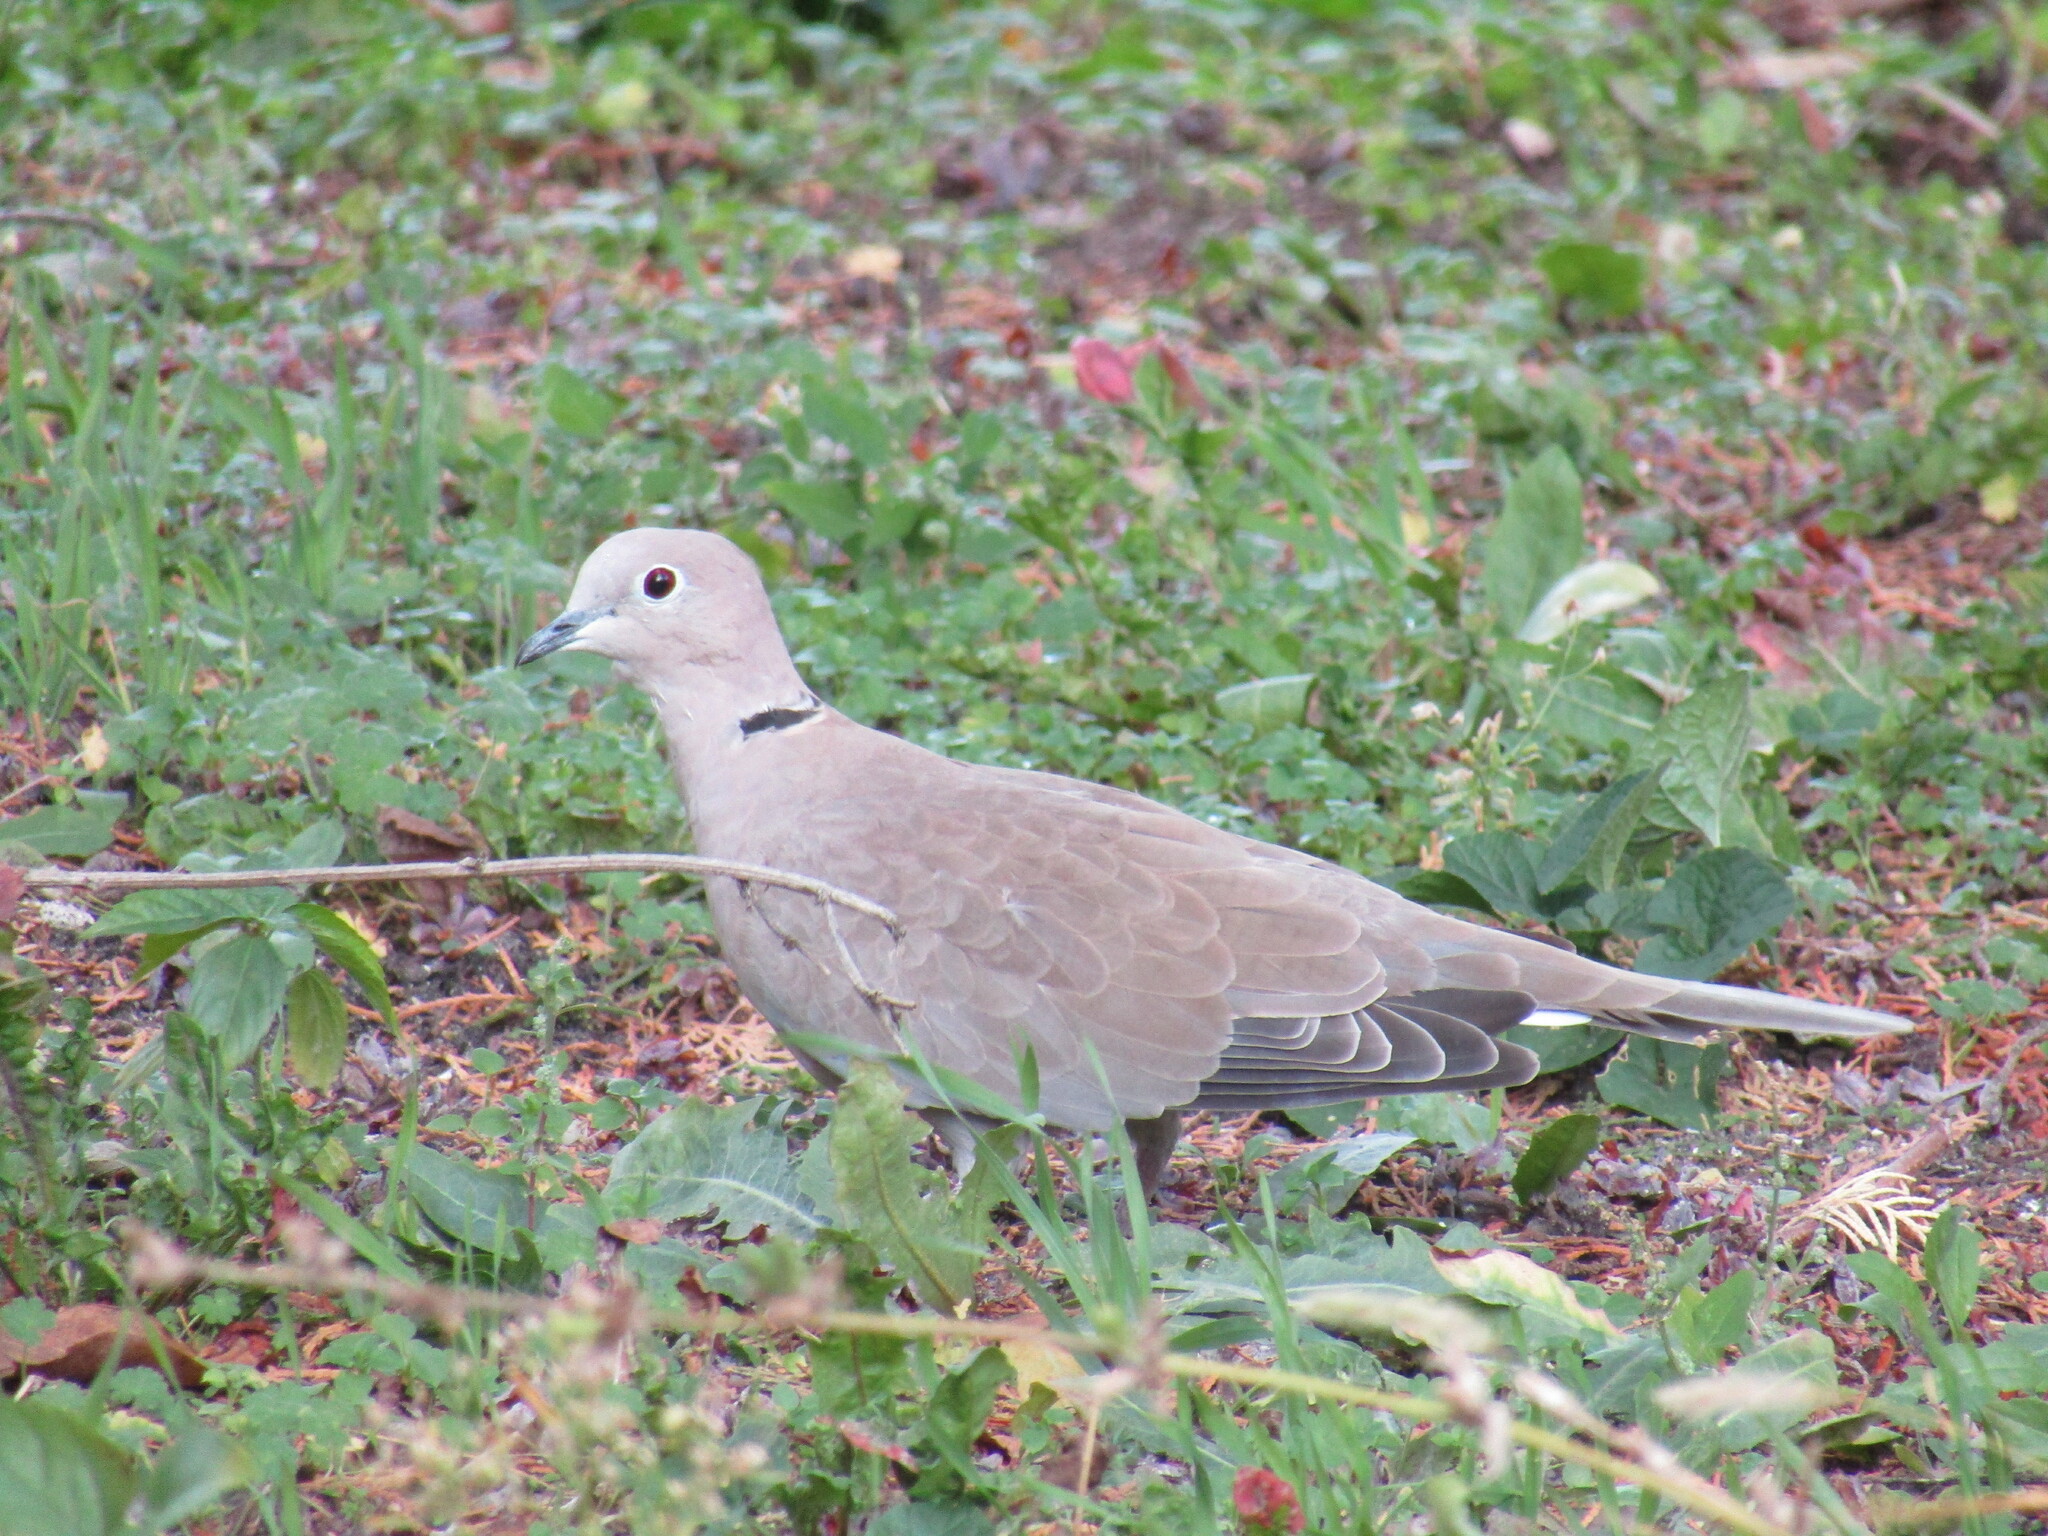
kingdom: Animalia
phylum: Chordata
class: Aves
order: Columbiformes
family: Columbidae
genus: Streptopelia
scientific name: Streptopelia decaocto
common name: Eurasian collared dove
